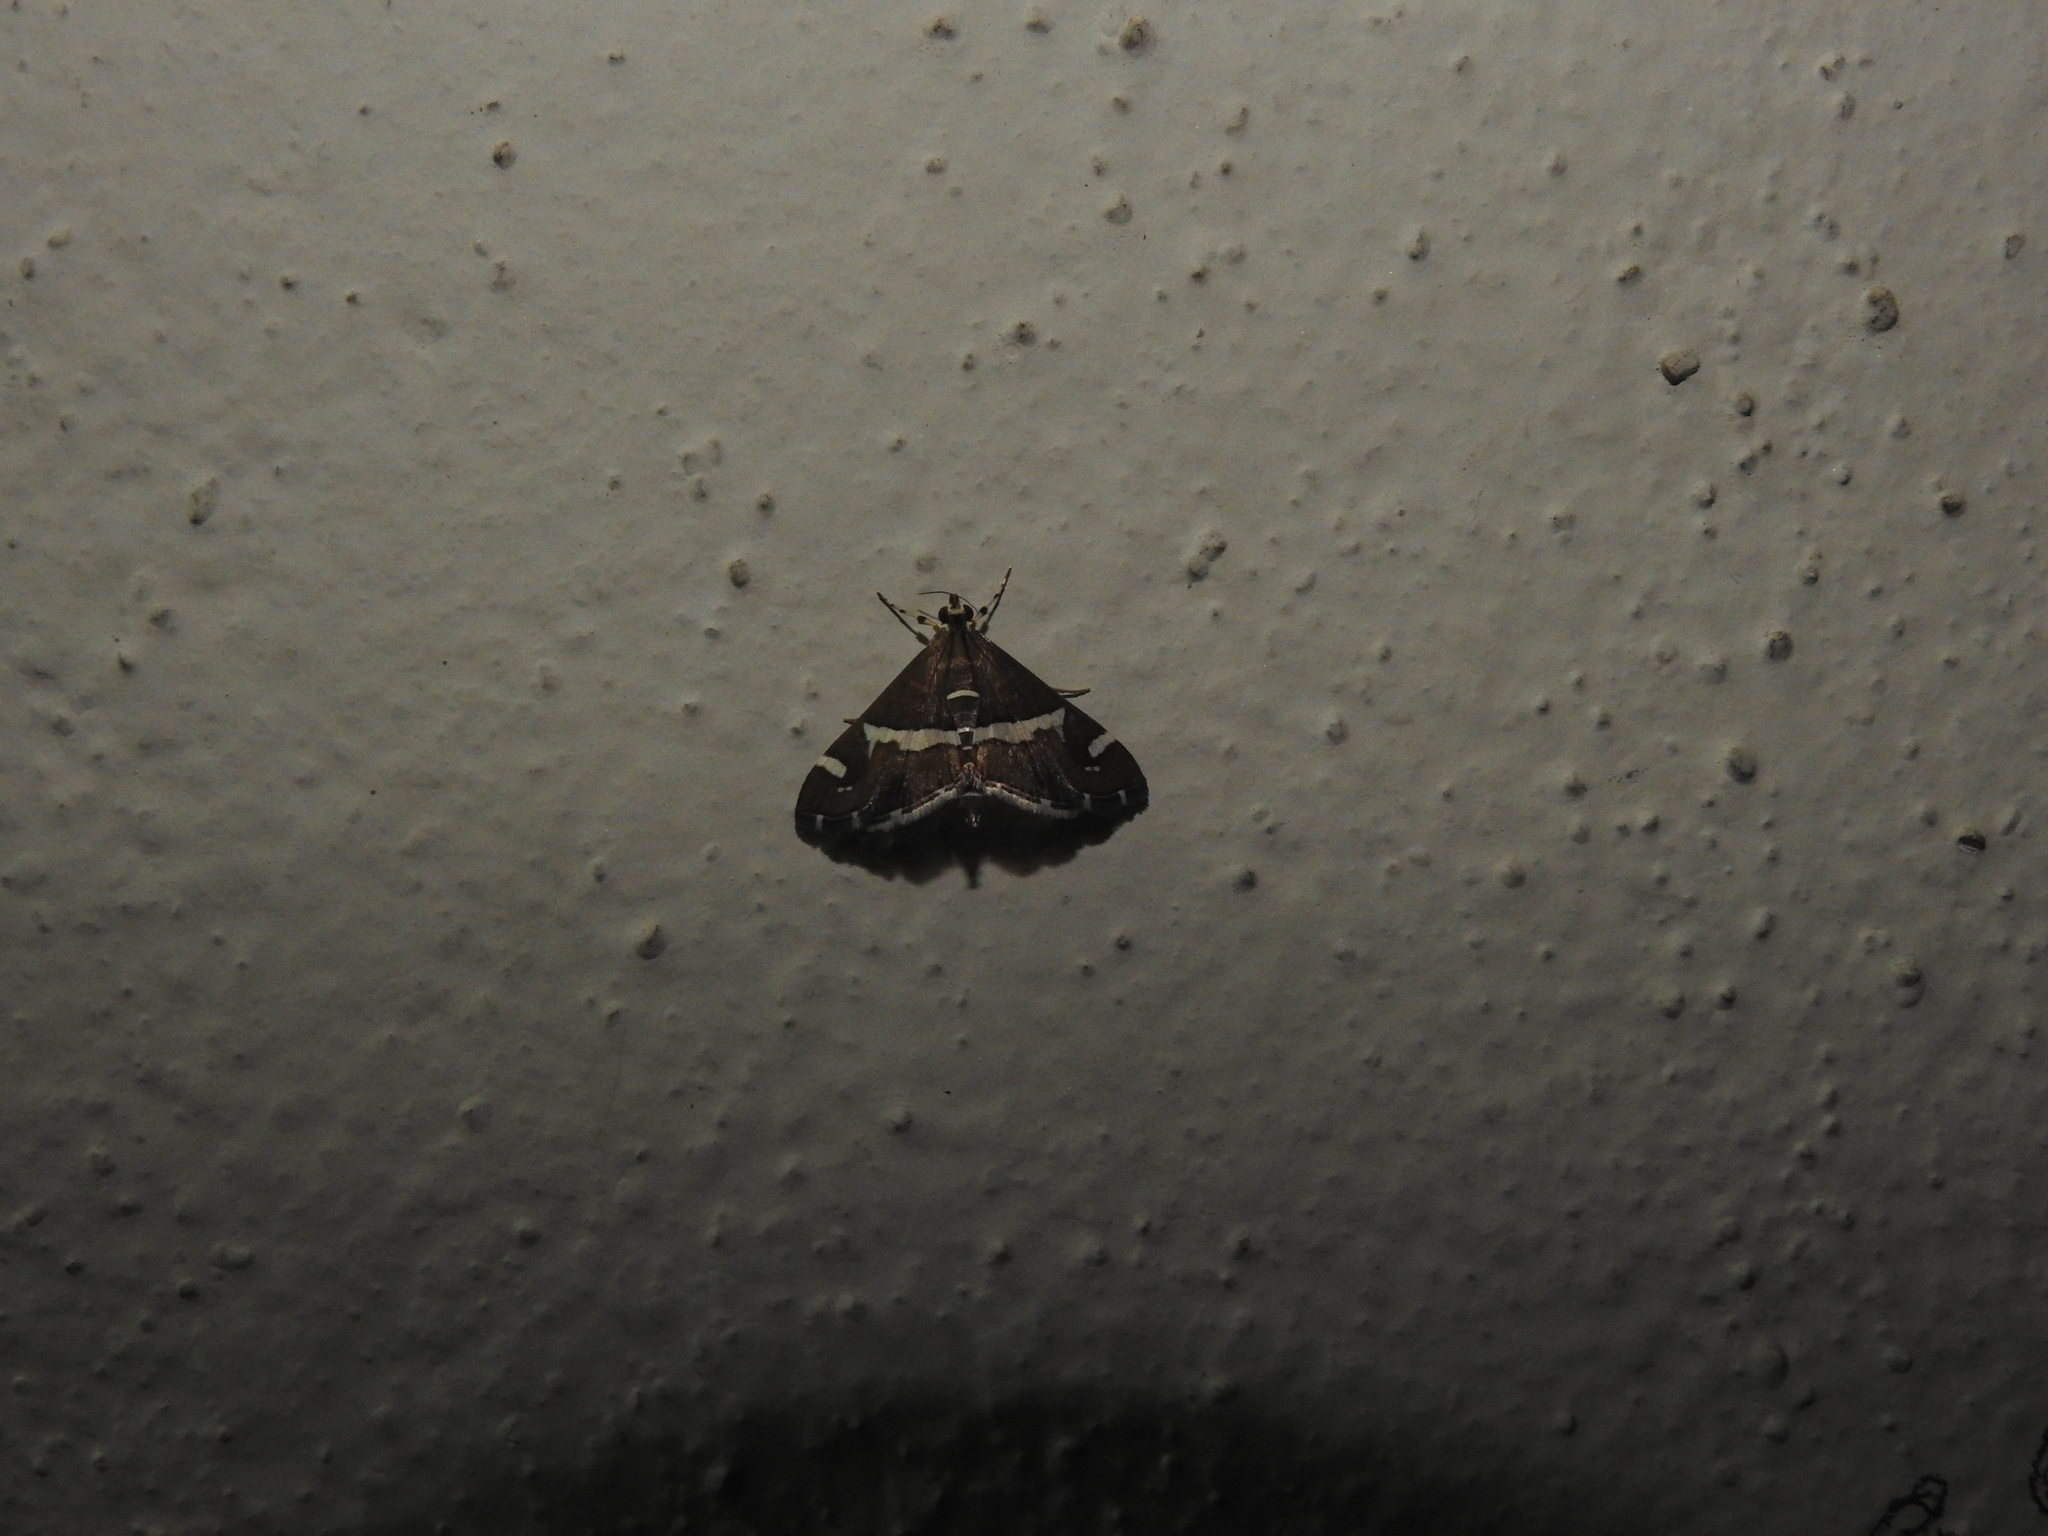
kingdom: Animalia
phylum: Arthropoda
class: Insecta
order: Lepidoptera
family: Crambidae
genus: Spoladea
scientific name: Spoladea recurvalis
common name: Beet webworm moth
